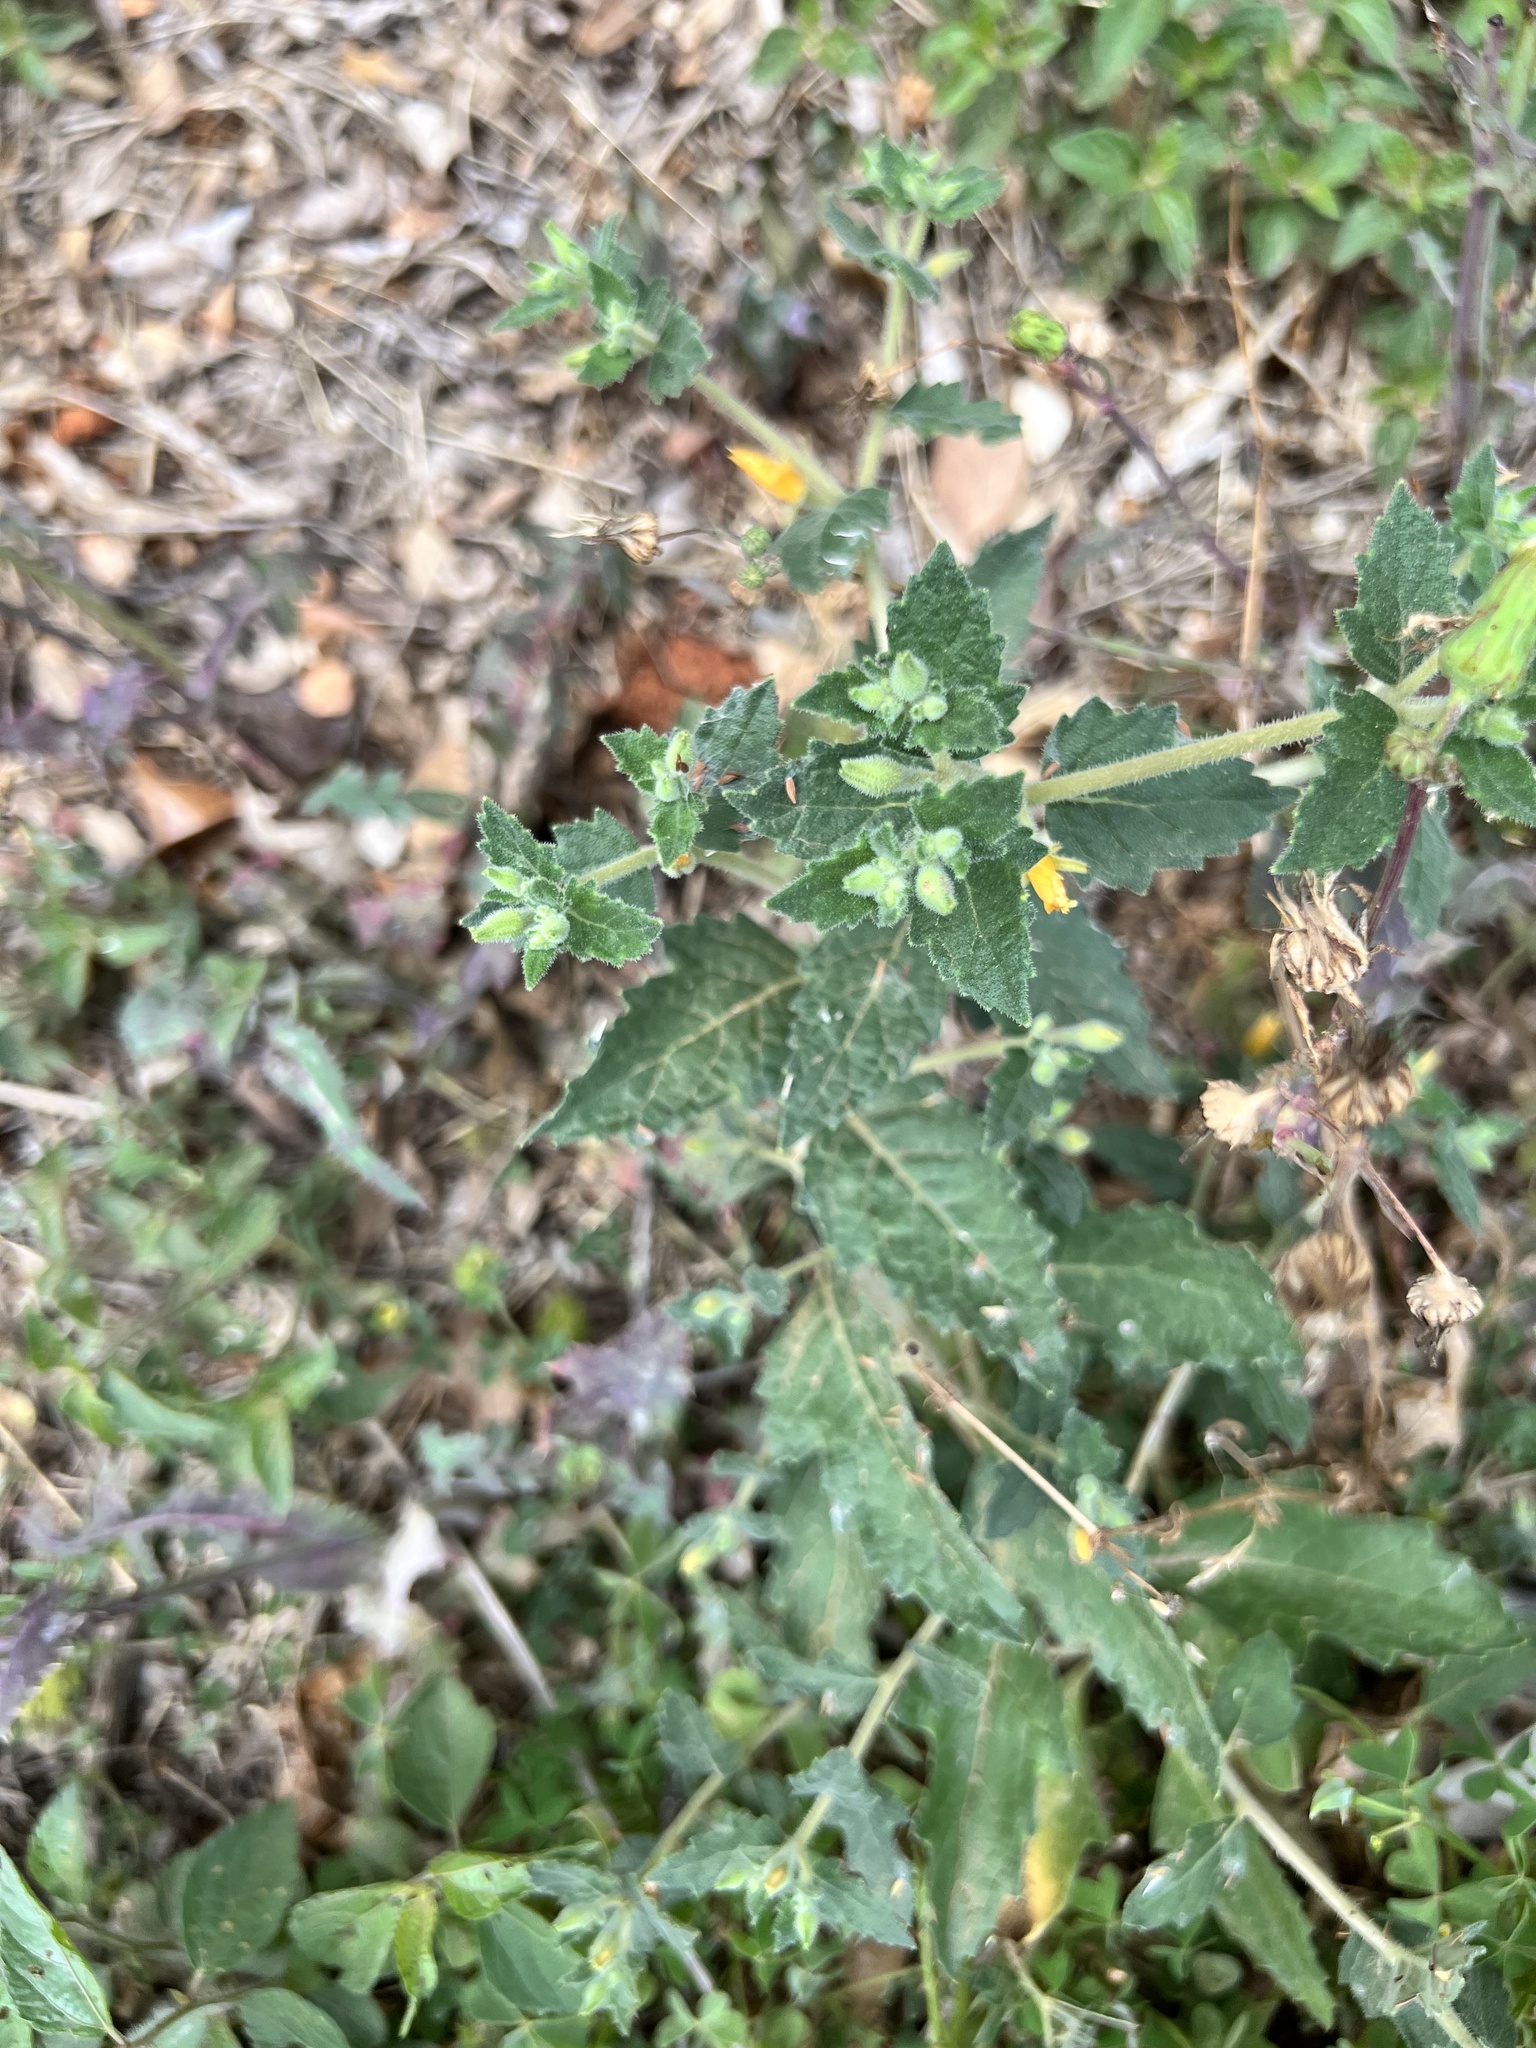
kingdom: Plantae
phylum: Tracheophyta
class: Magnoliopsida
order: Cornales
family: Loasaceae
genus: Mentzelia
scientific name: Mentzelia oligosperma
